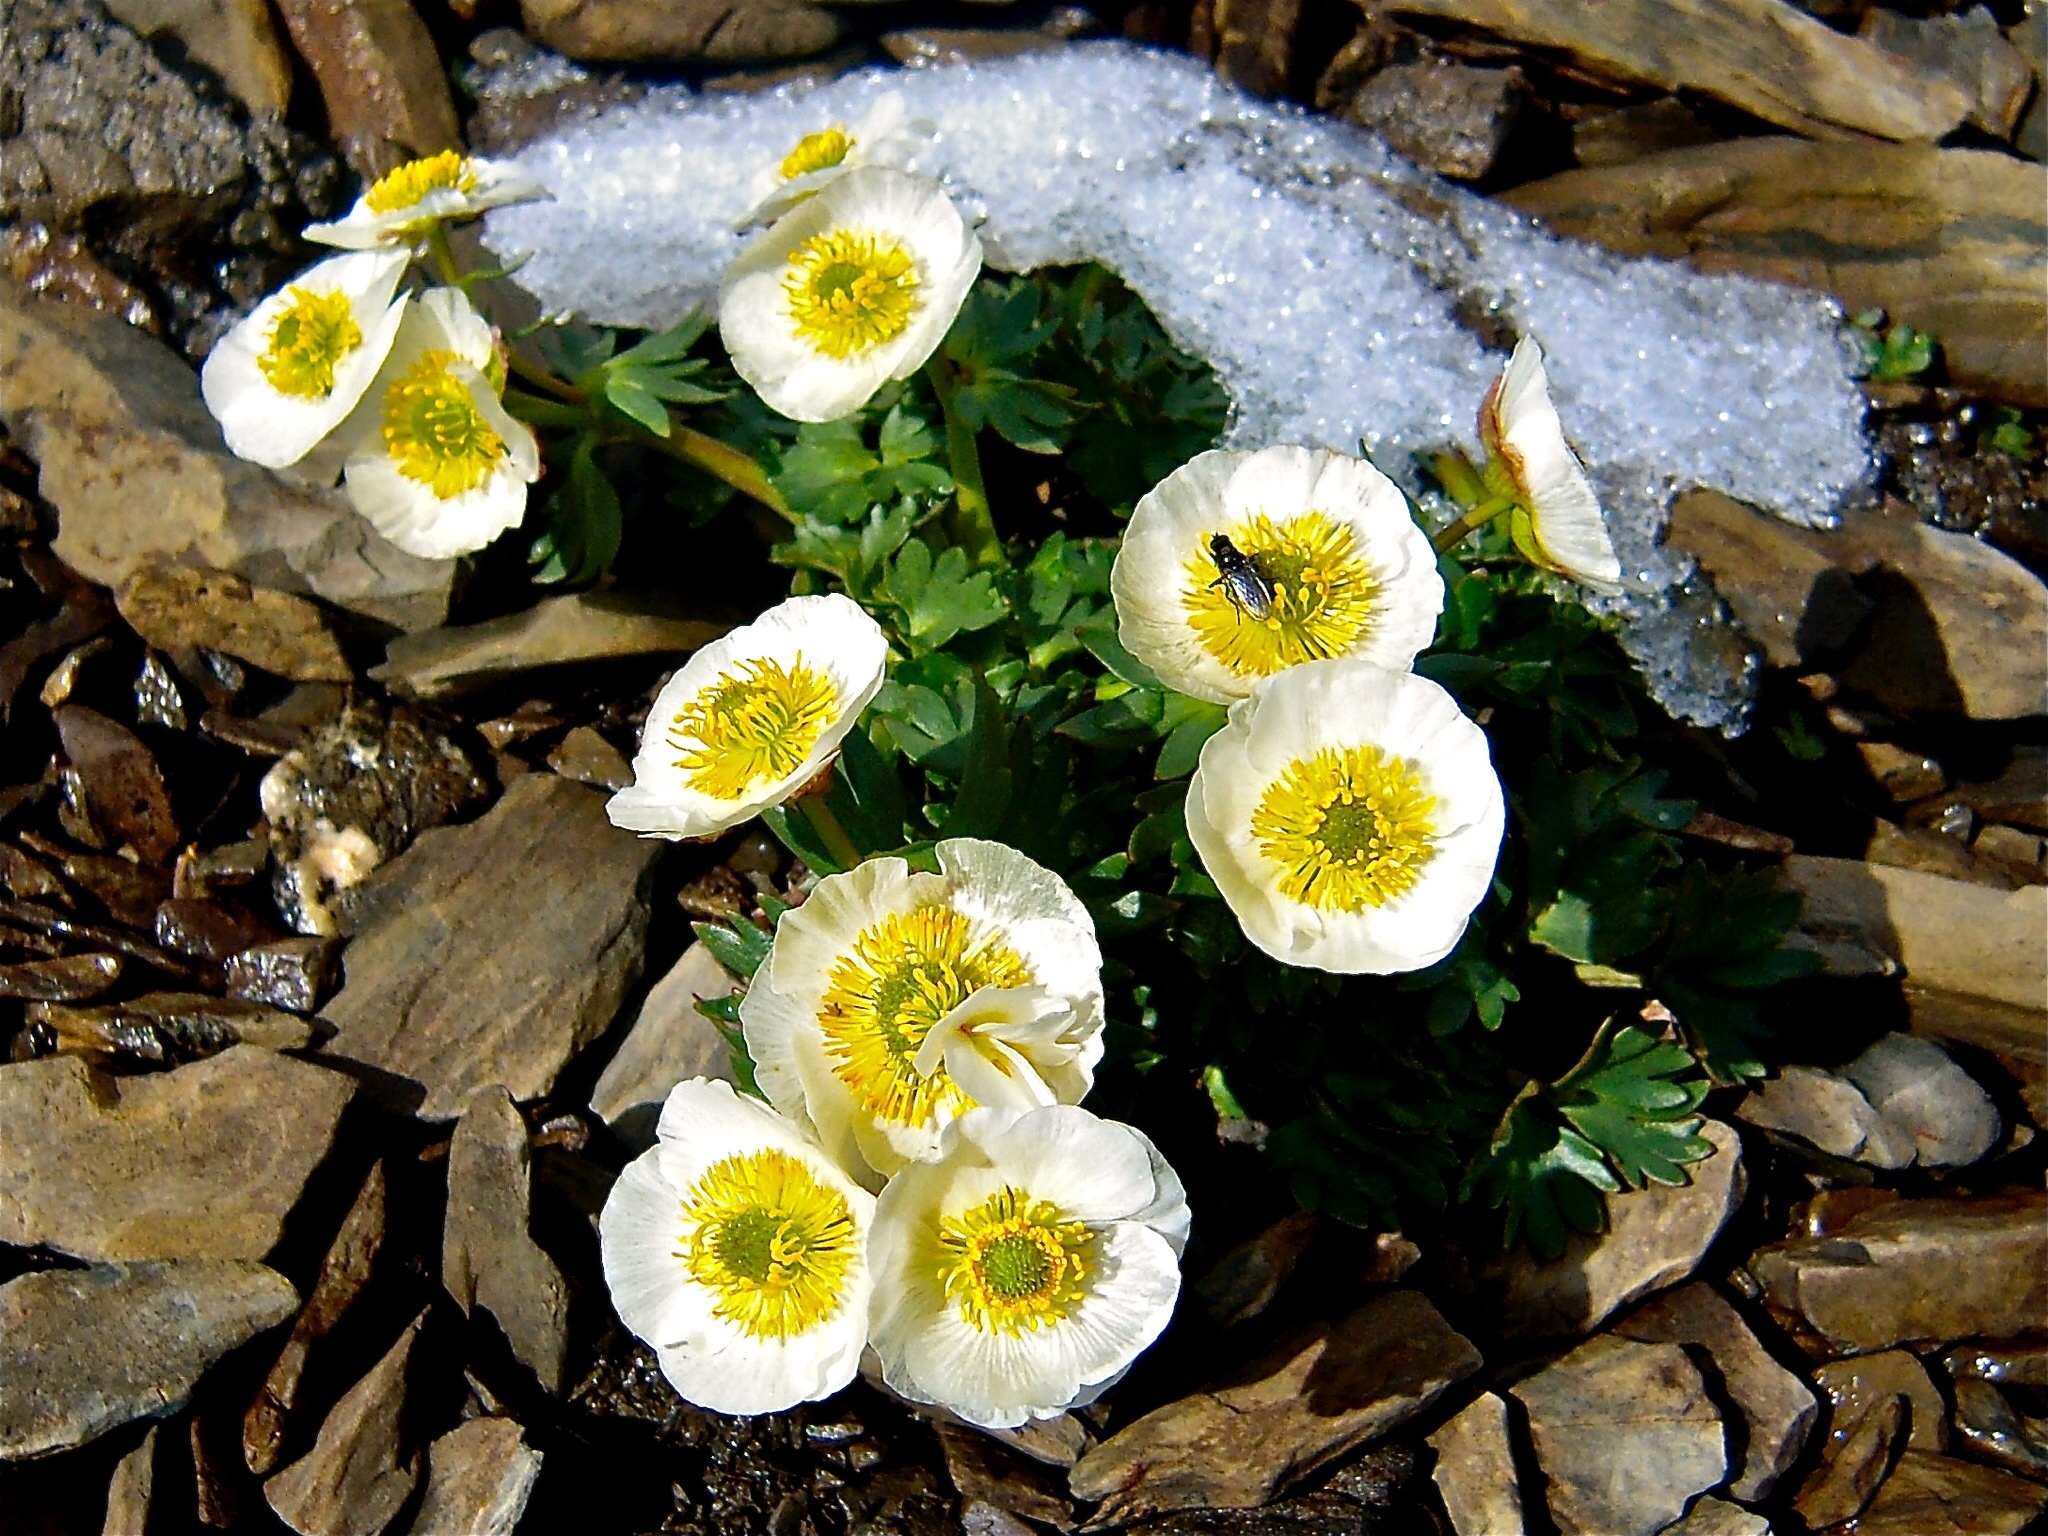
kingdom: Plantae
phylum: Tracheophyta
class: Magnoliopsida
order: Ranunculales
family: Ranunculaceae
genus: Ranunculus
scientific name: Ranunculus glacialis
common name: Glacier buttercup
